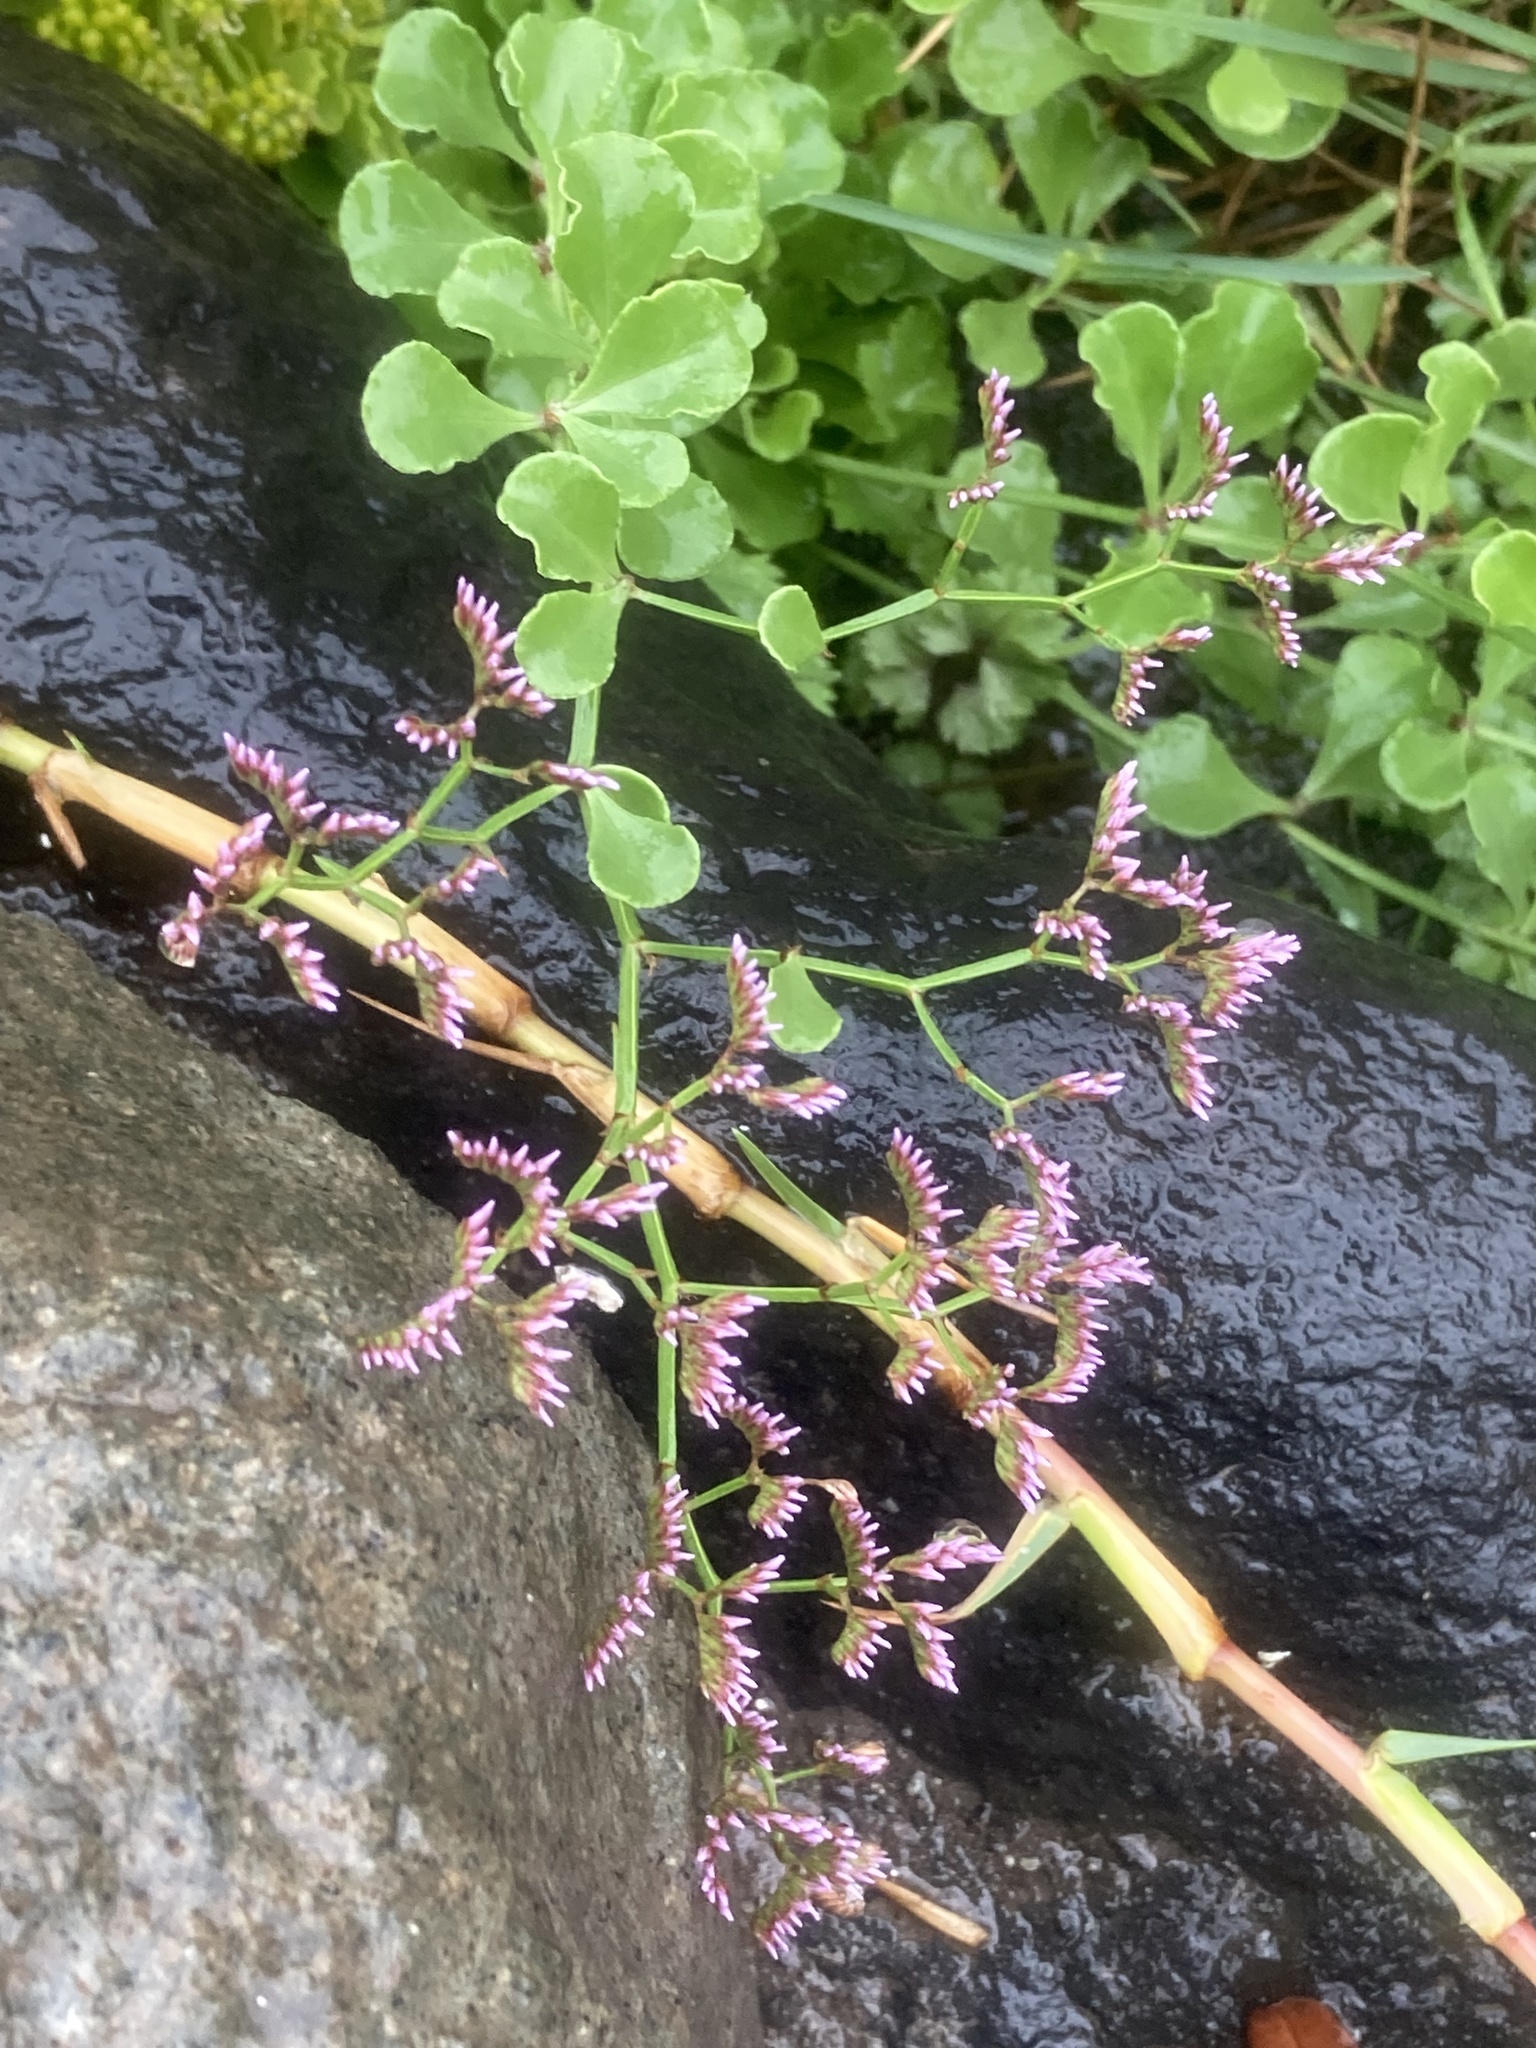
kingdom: Plantae
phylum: Tracheophyta
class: Magnoliopsida
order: Caryophyllales
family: Plumbaginaceae
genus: Limonium
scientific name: Limonium pectinatum
